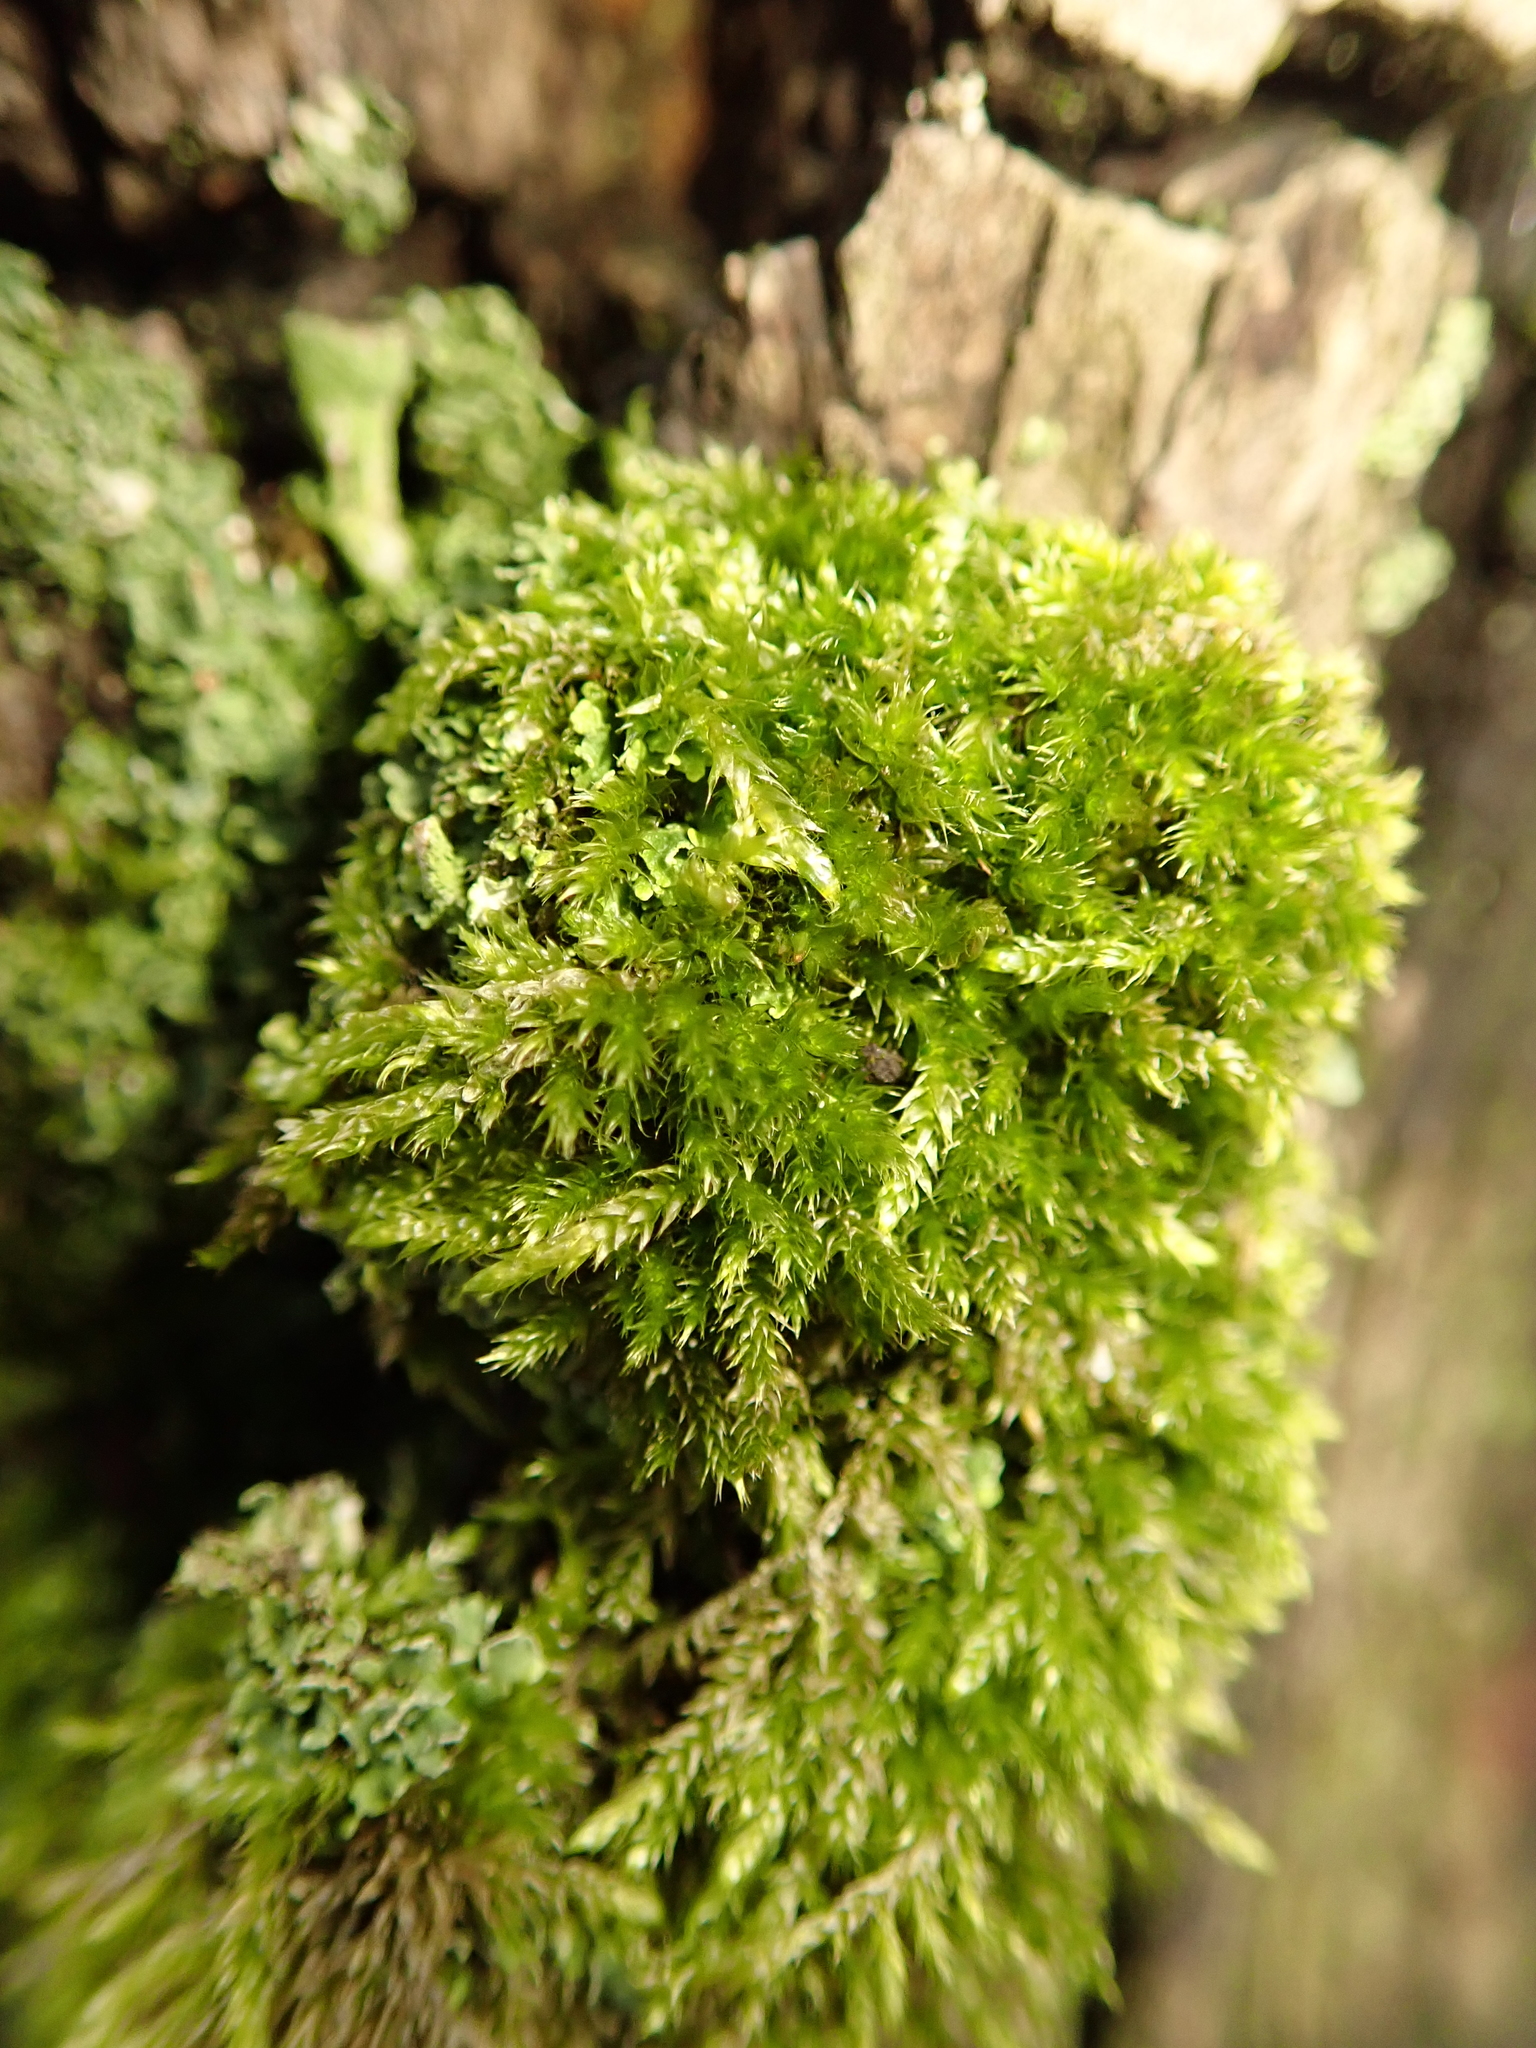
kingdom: Plantae
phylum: Bryophyta
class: Bryopsida
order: Hypnales
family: Hypnaceae
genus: Hypnum
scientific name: Hypnum cupressiforme
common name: Cypress-leaved plait-moss
